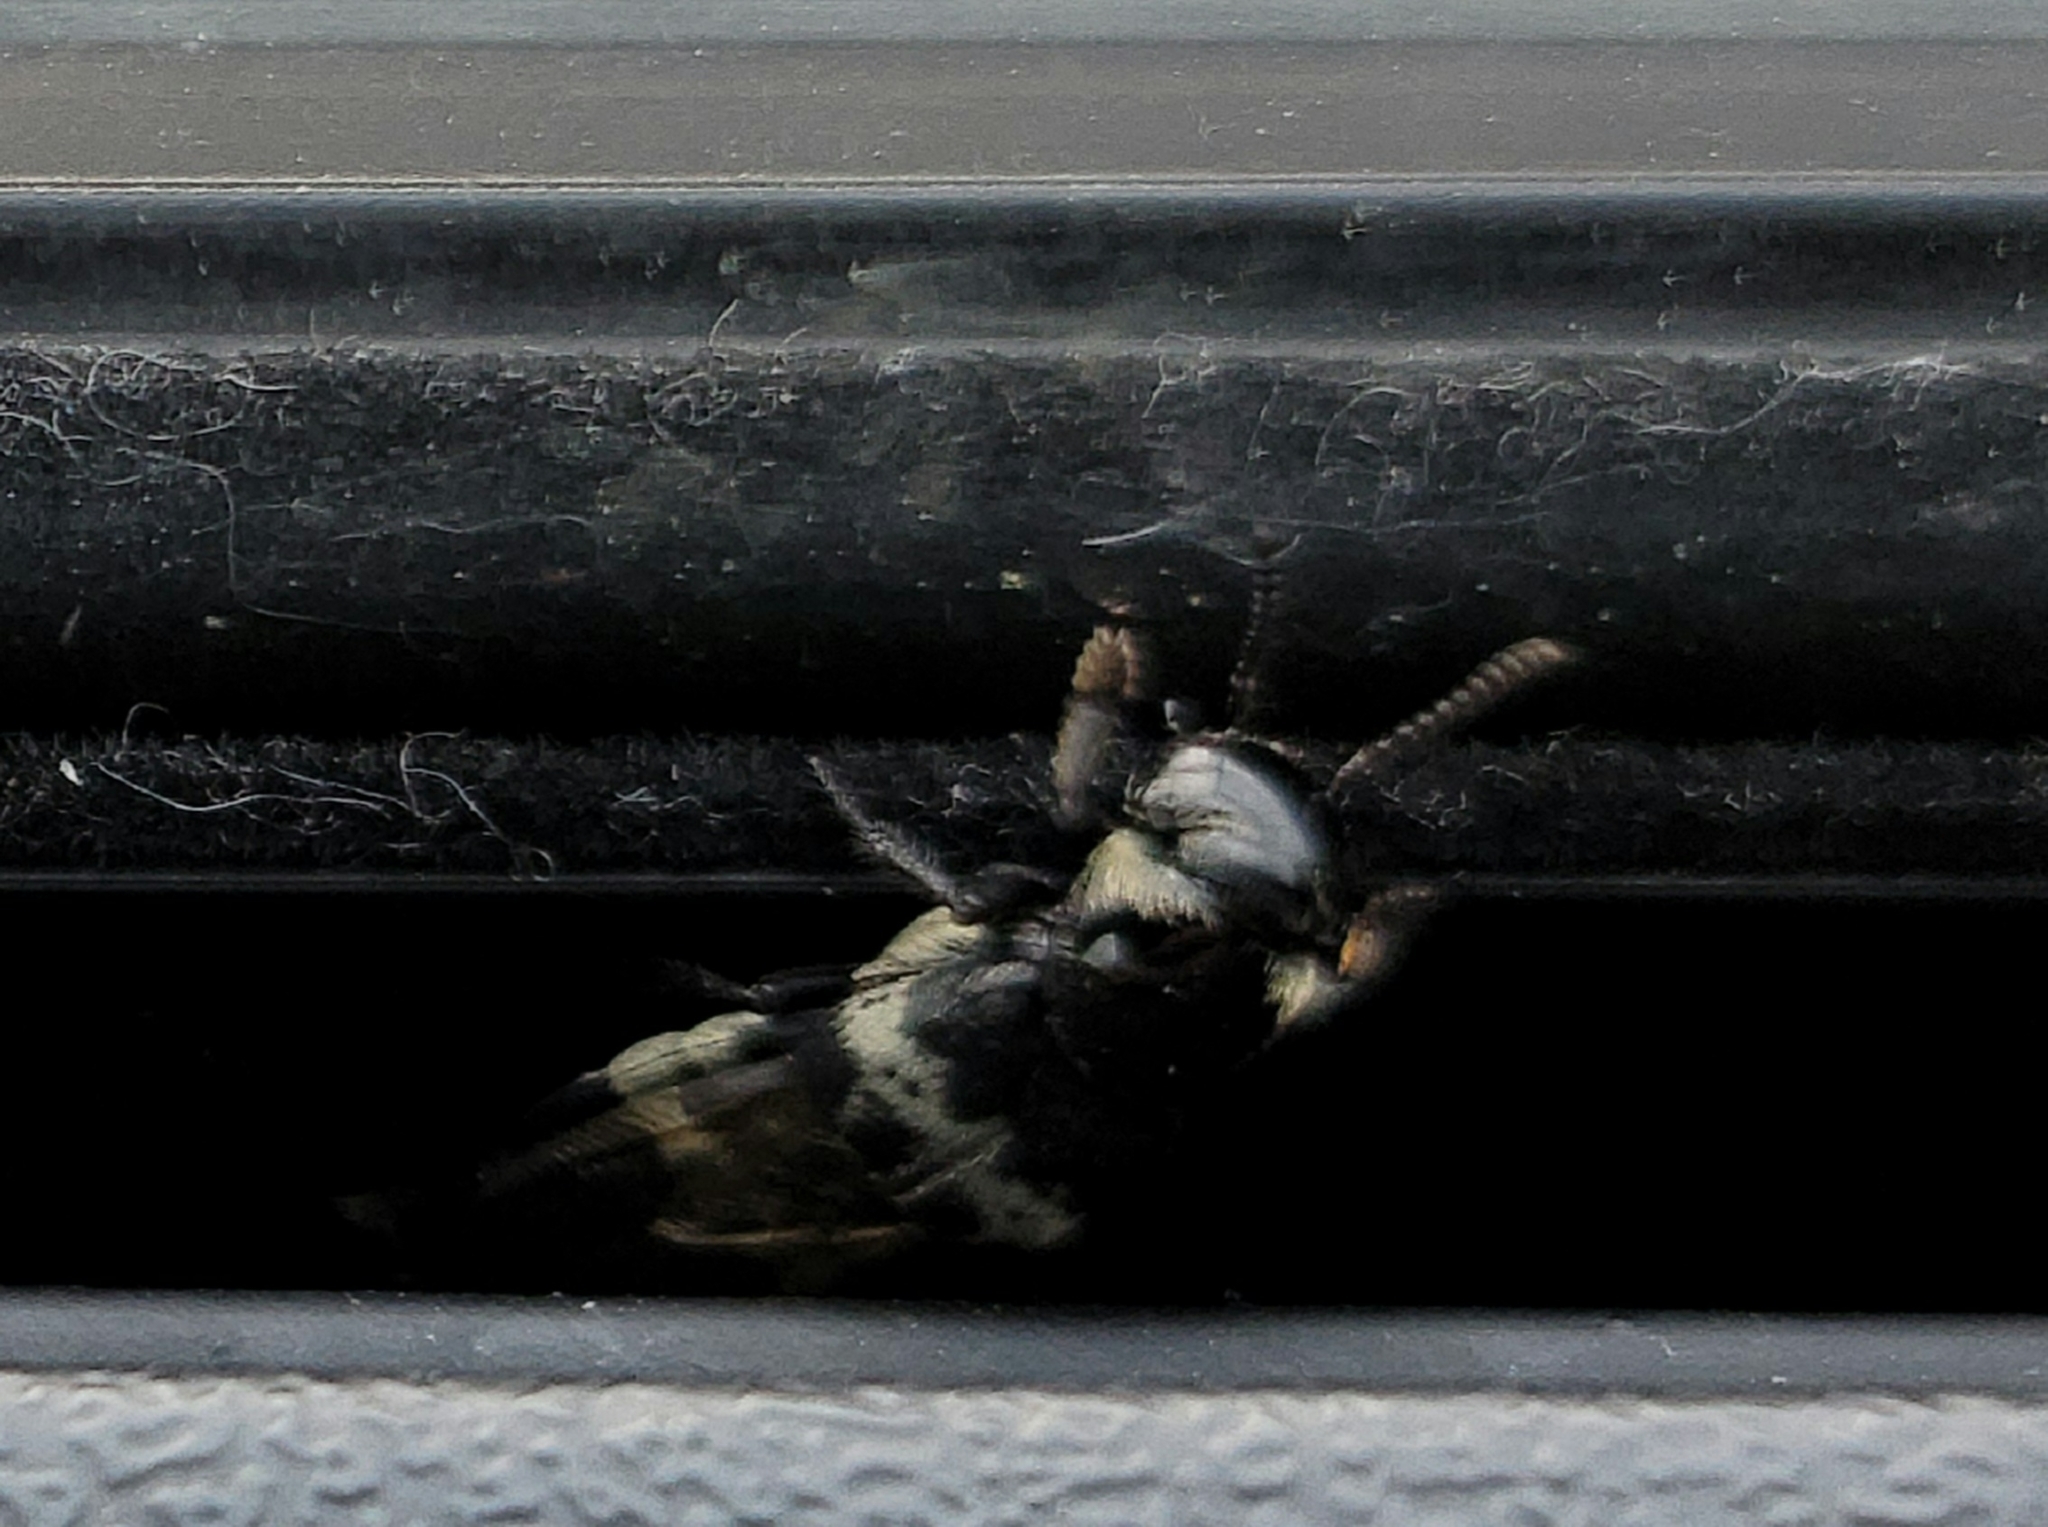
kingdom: Animalia
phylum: Arthropoda
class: Insecta
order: Coleoptera
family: Staphylinidae
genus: Creophilus
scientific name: Creophilus maxillosus
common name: Hairy rove beetle
